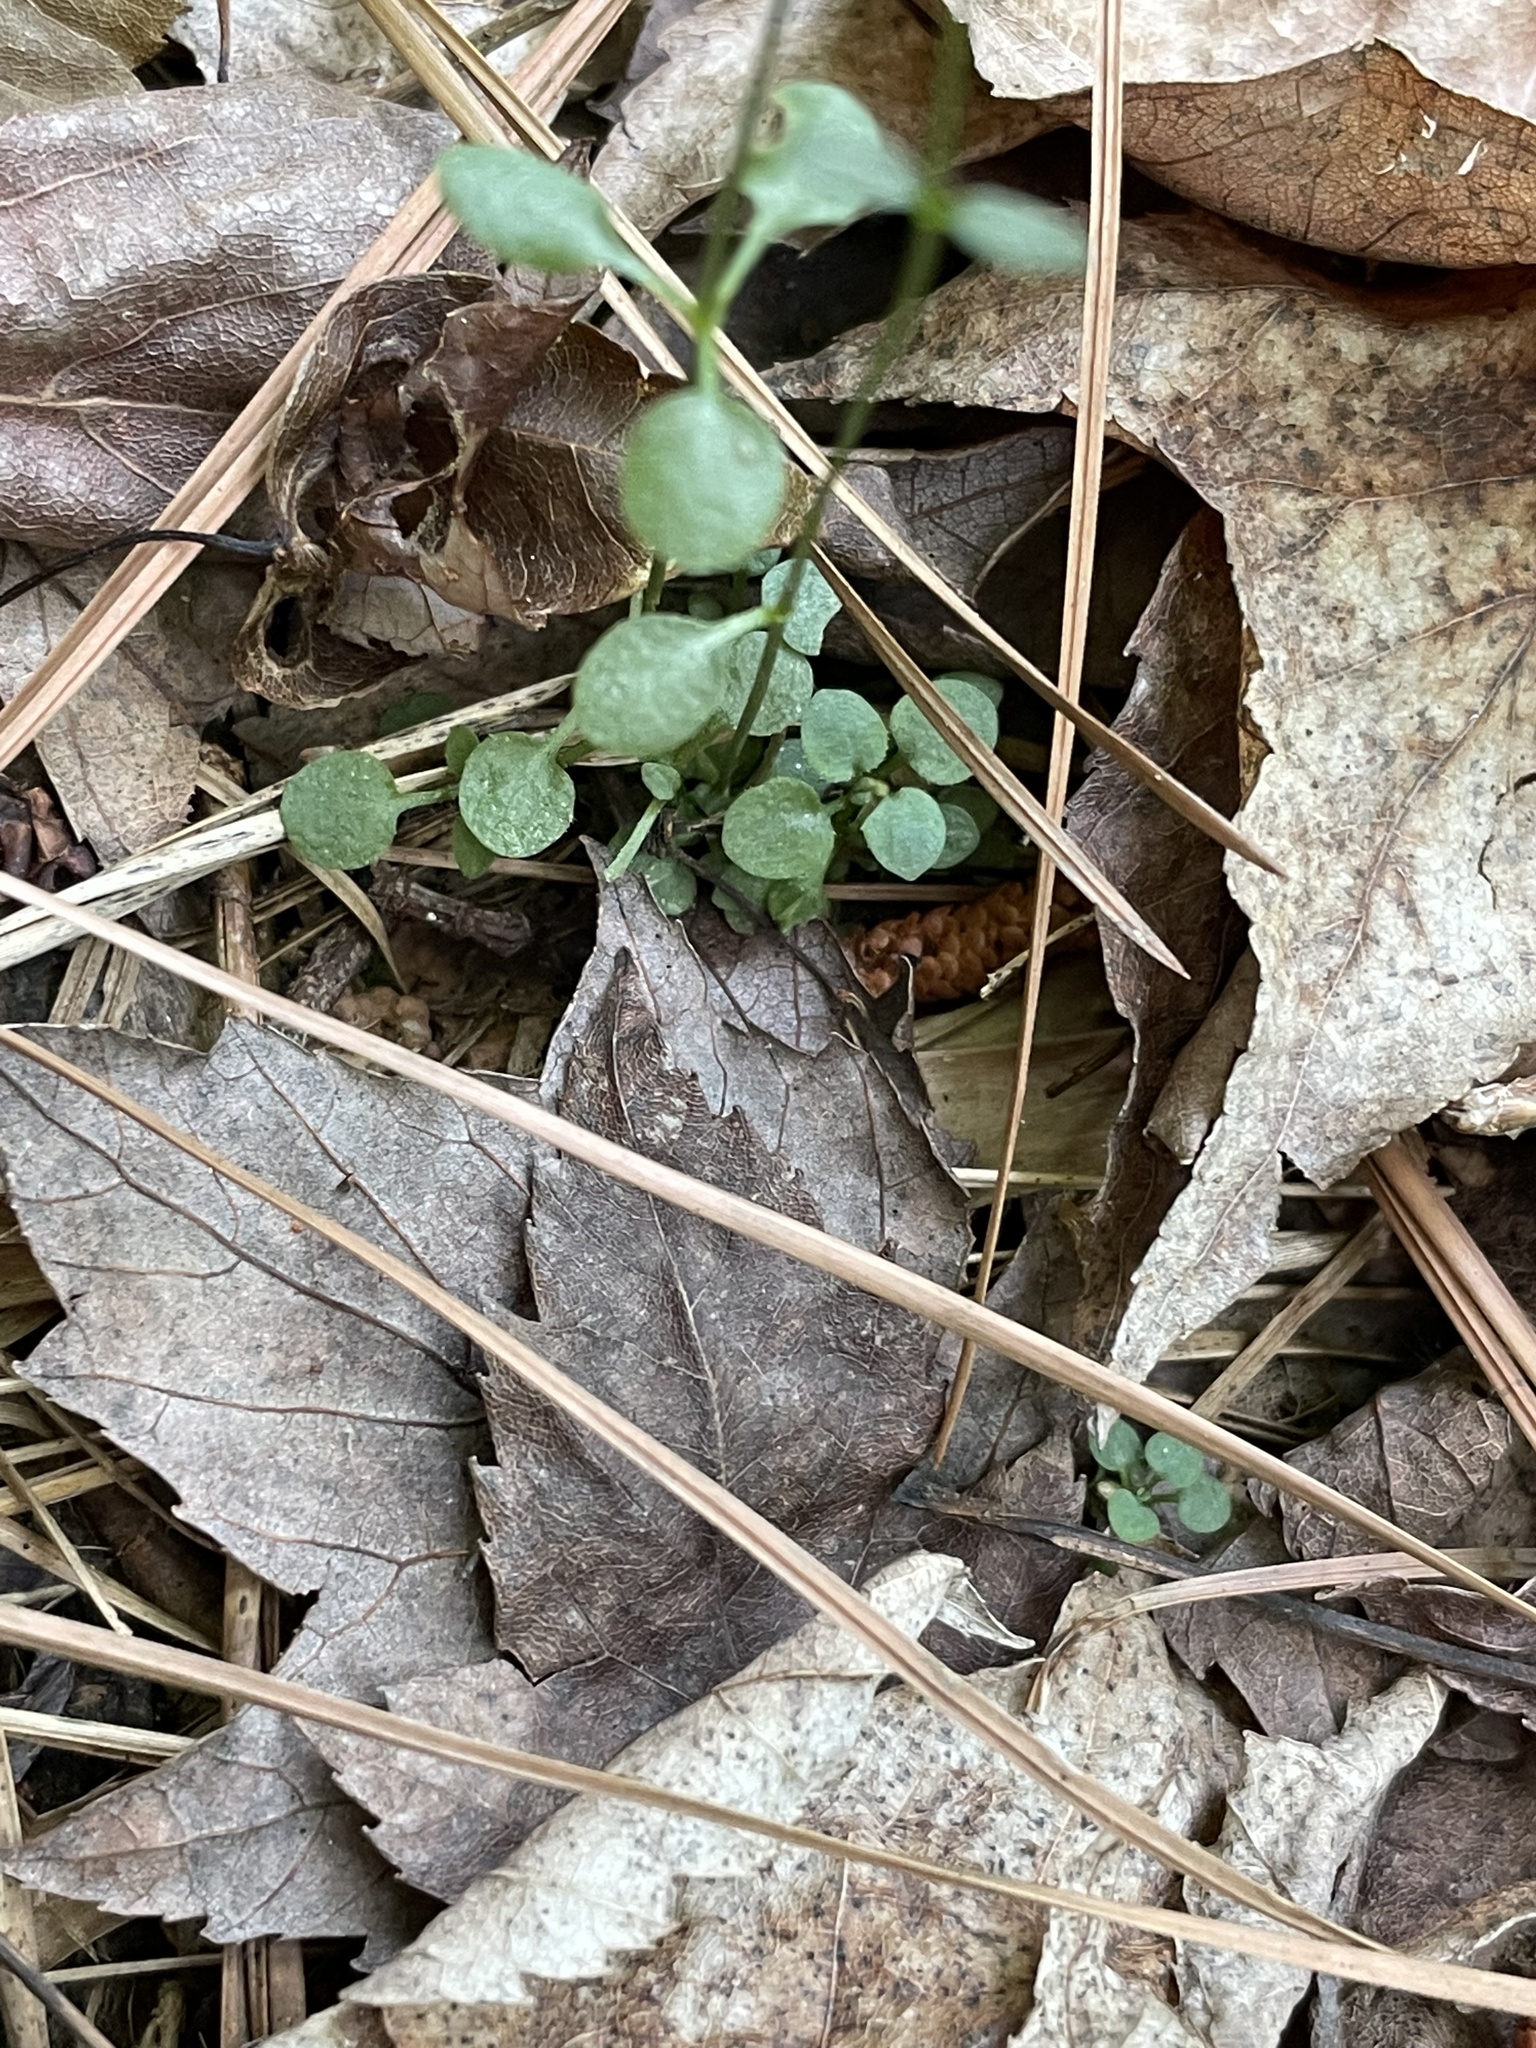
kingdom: Plantae
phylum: Tracheophyta
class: Magnoliopsida
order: Gentianales
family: Rubiaceae
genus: Houstonia
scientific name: Houstonia caerulea
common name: Bluets
